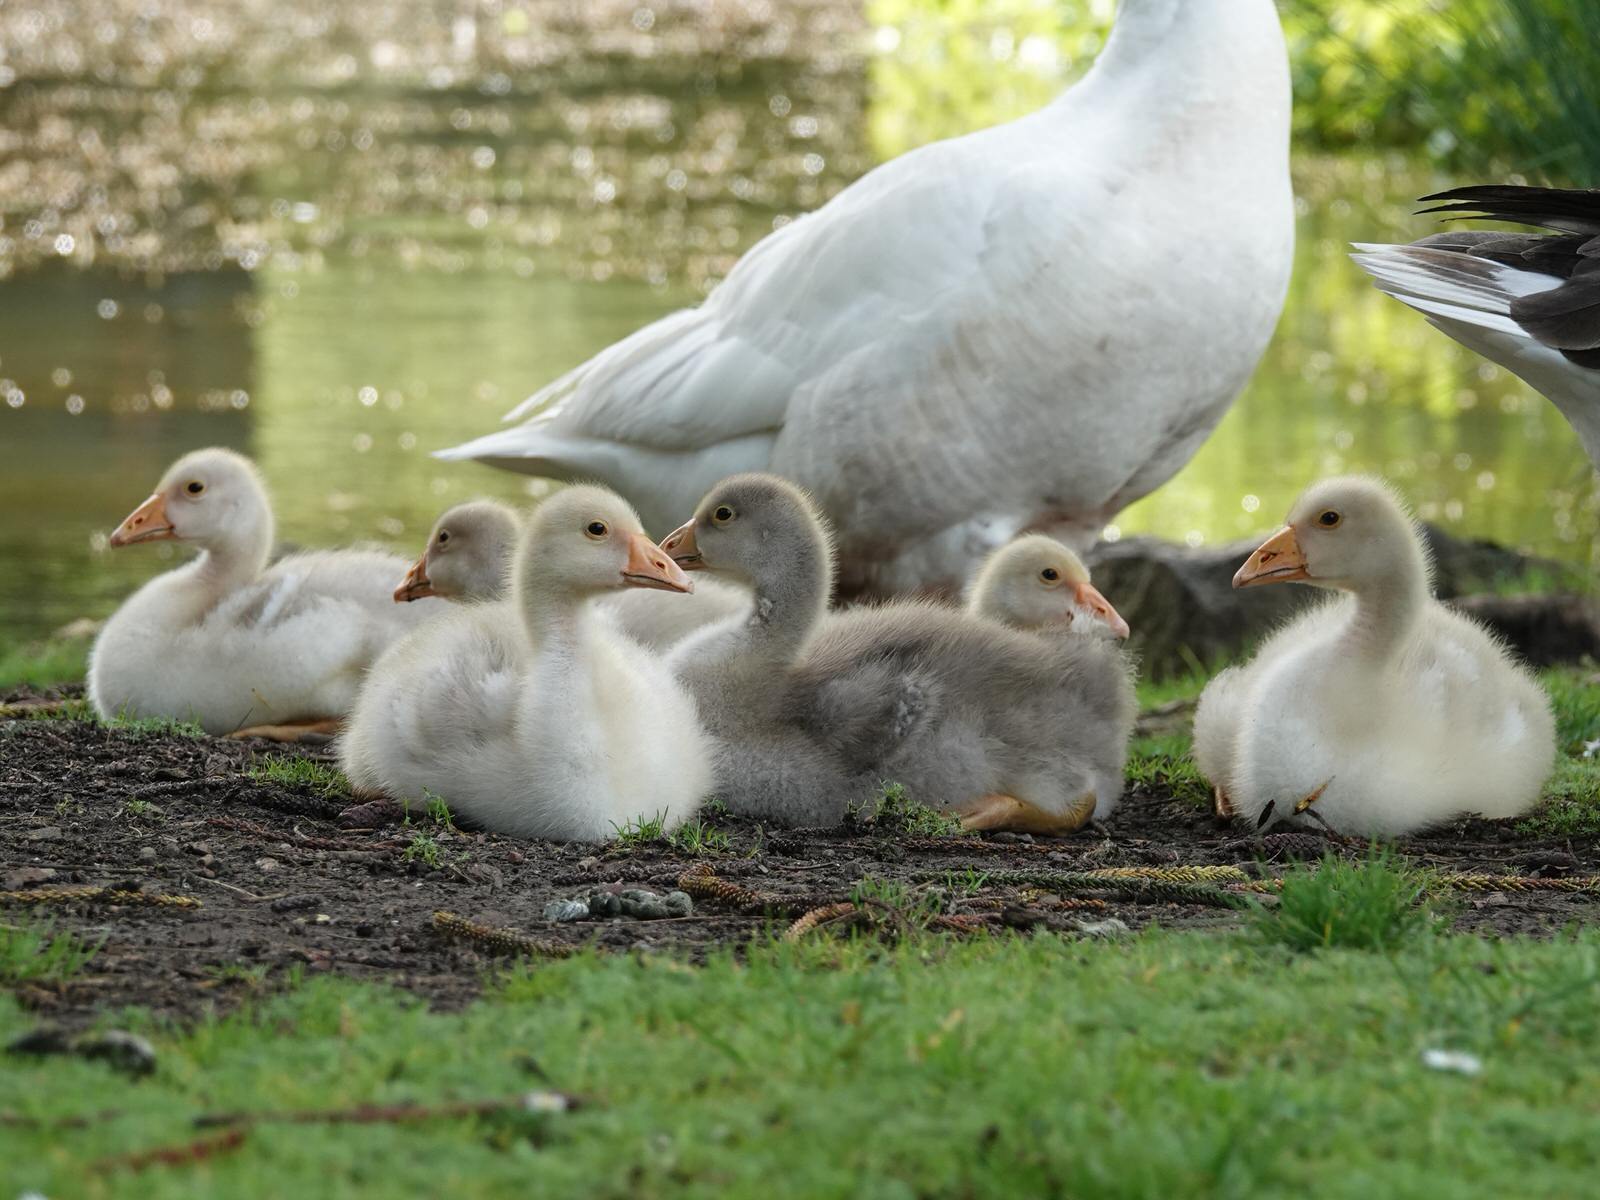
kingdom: Animalia
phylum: Chordata
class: Aves
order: Anseriformes
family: Anatidae
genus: Anser
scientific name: Anser anser
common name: Greylag goose
